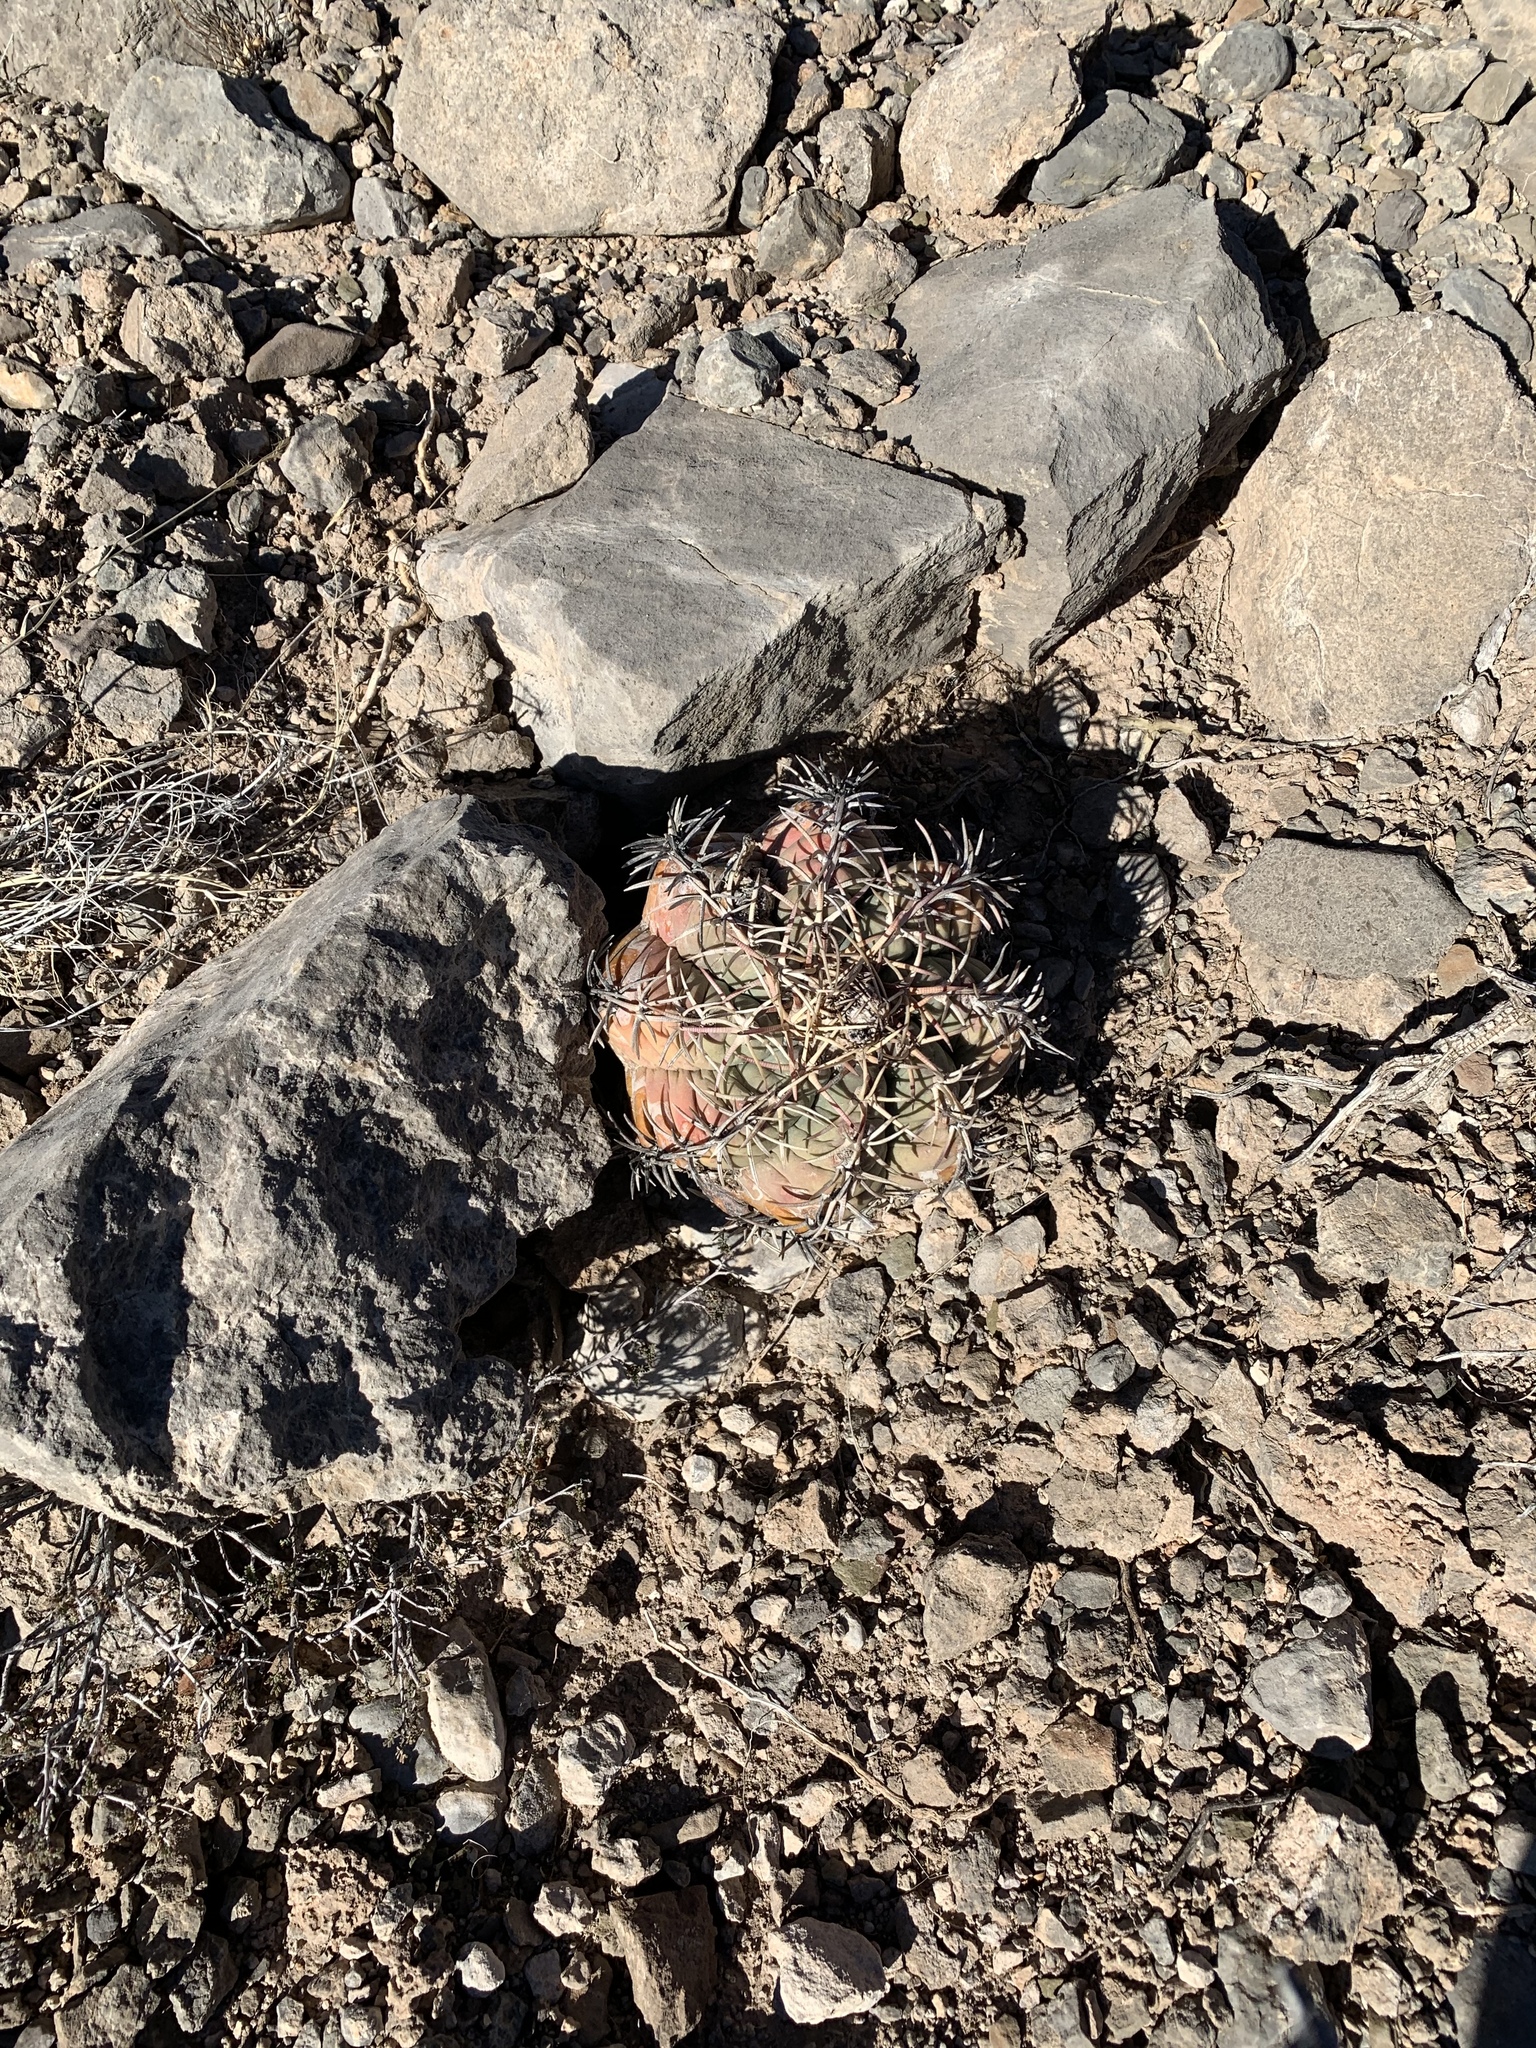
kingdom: Plantae
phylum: Tracheophyta
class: Magnoliopsida
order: Caryophyllales
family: Cactaceae
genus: Echinocactus
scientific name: Echinocactus horizonthalonius
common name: Devilshead
